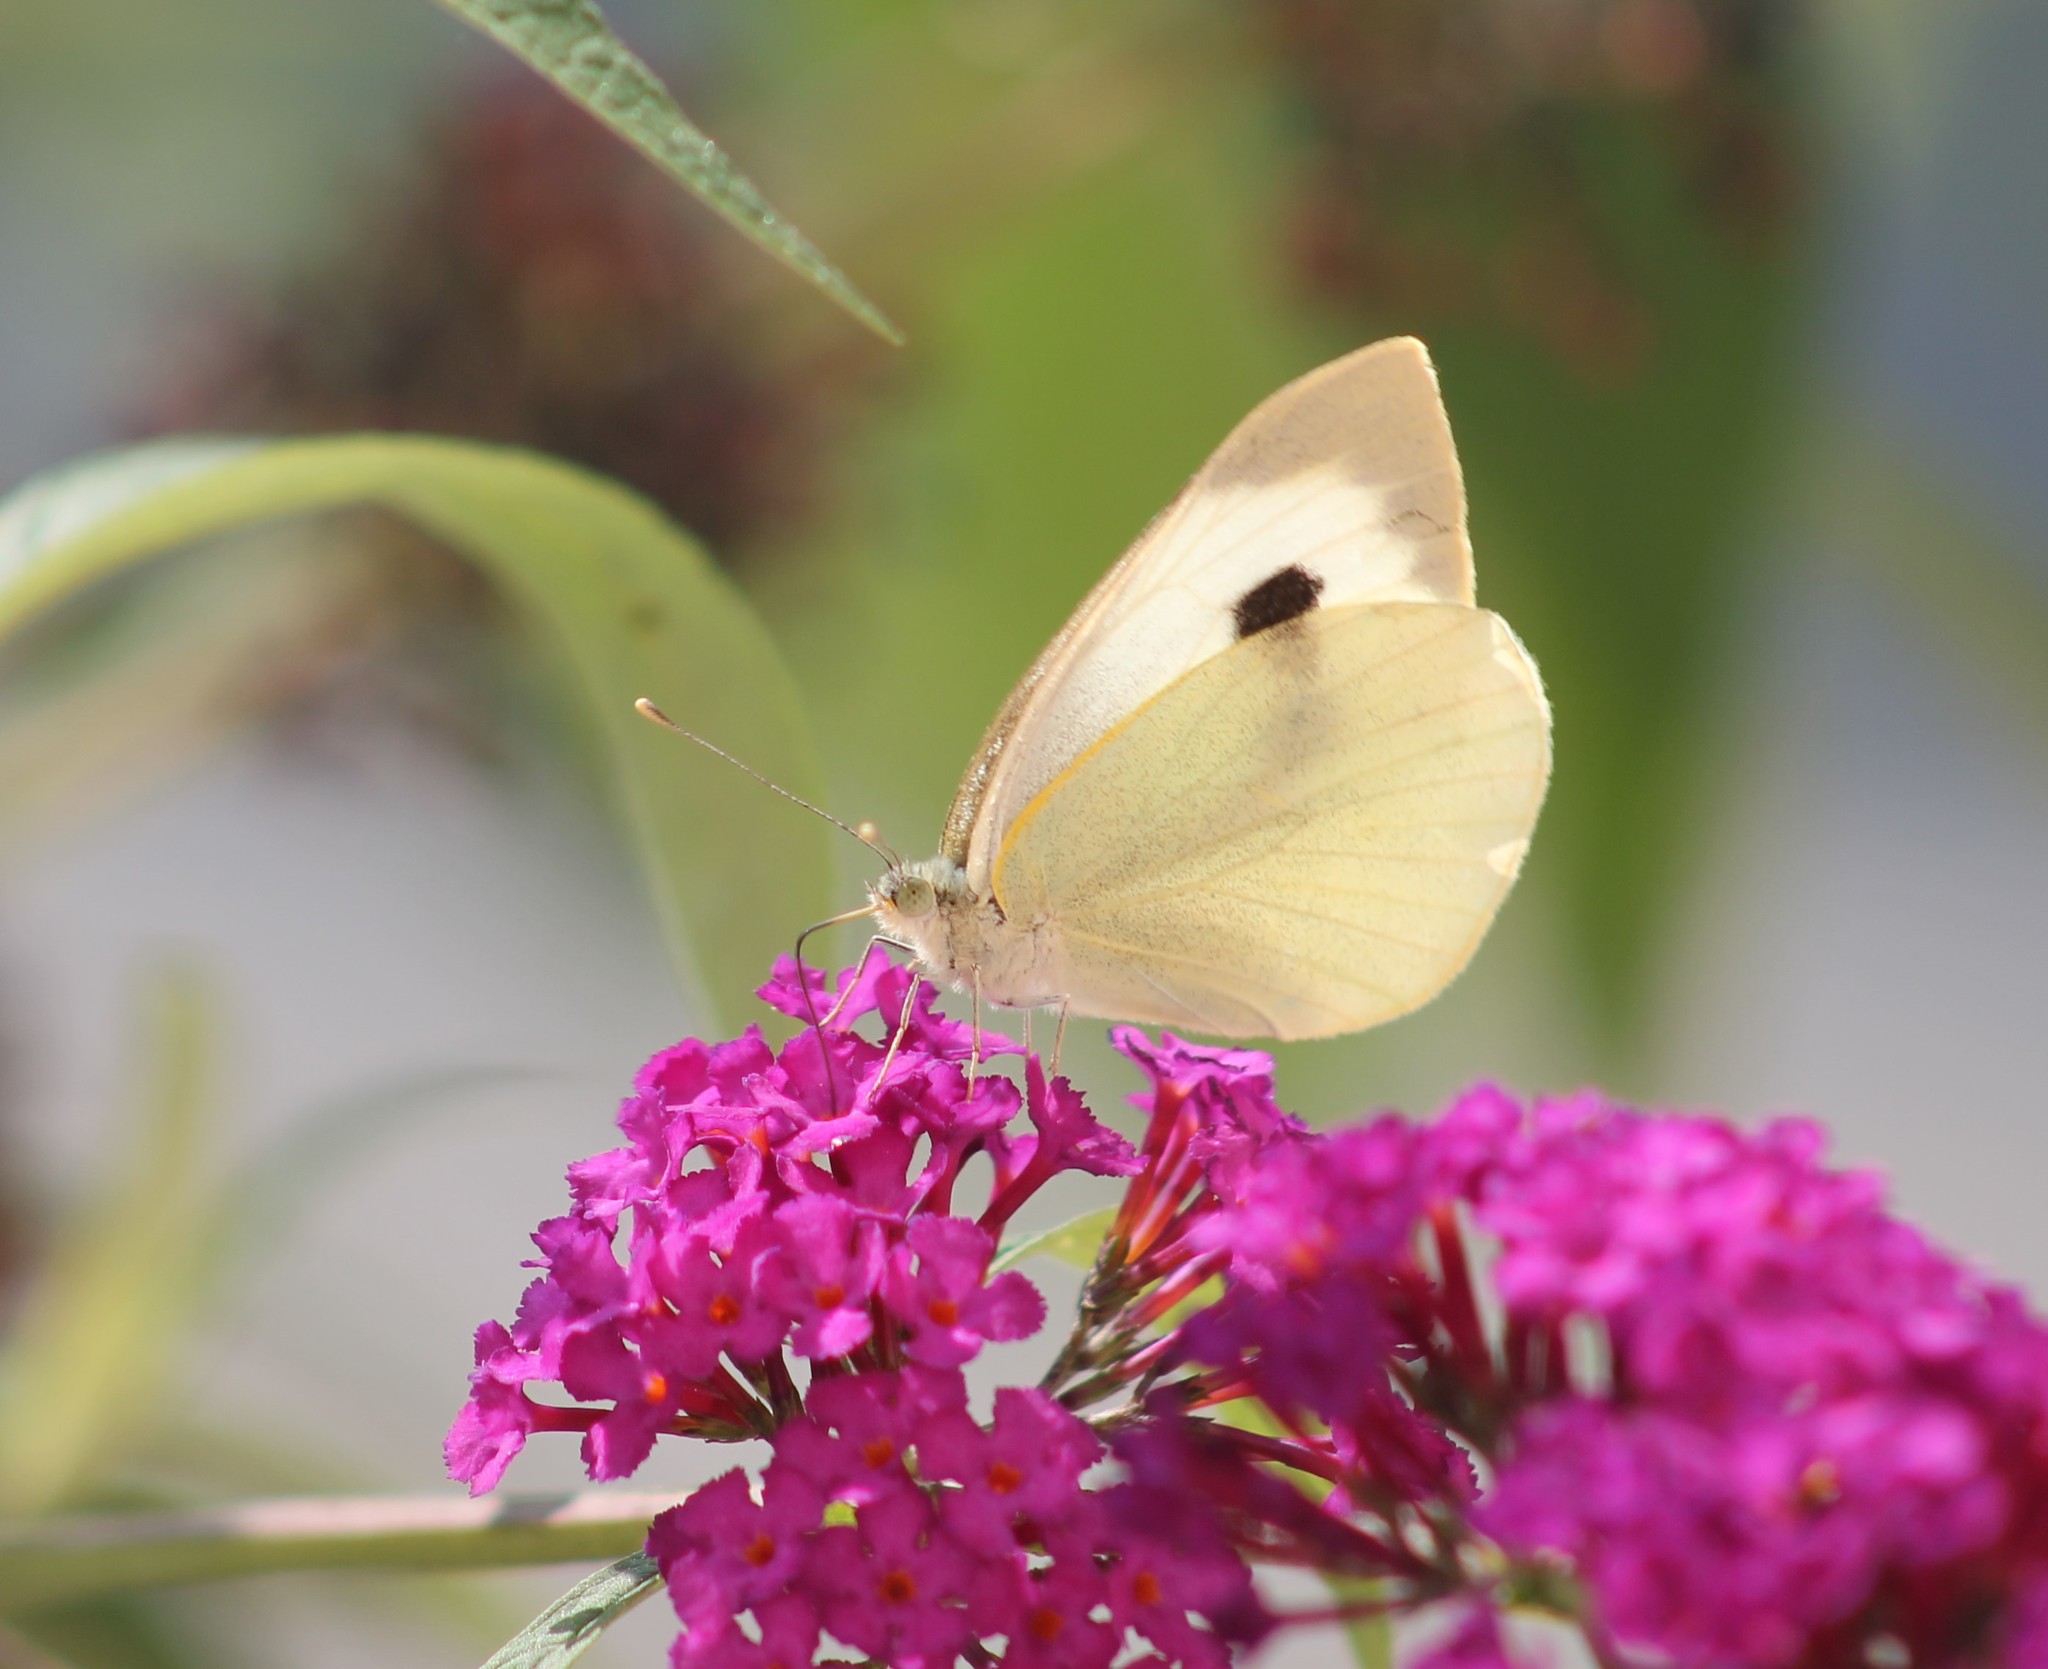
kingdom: Animalia
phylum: Arthropoda
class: Insecta
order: Lepidoptera
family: Pieridae
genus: Pieris
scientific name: Pieris brassicae
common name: Large white
